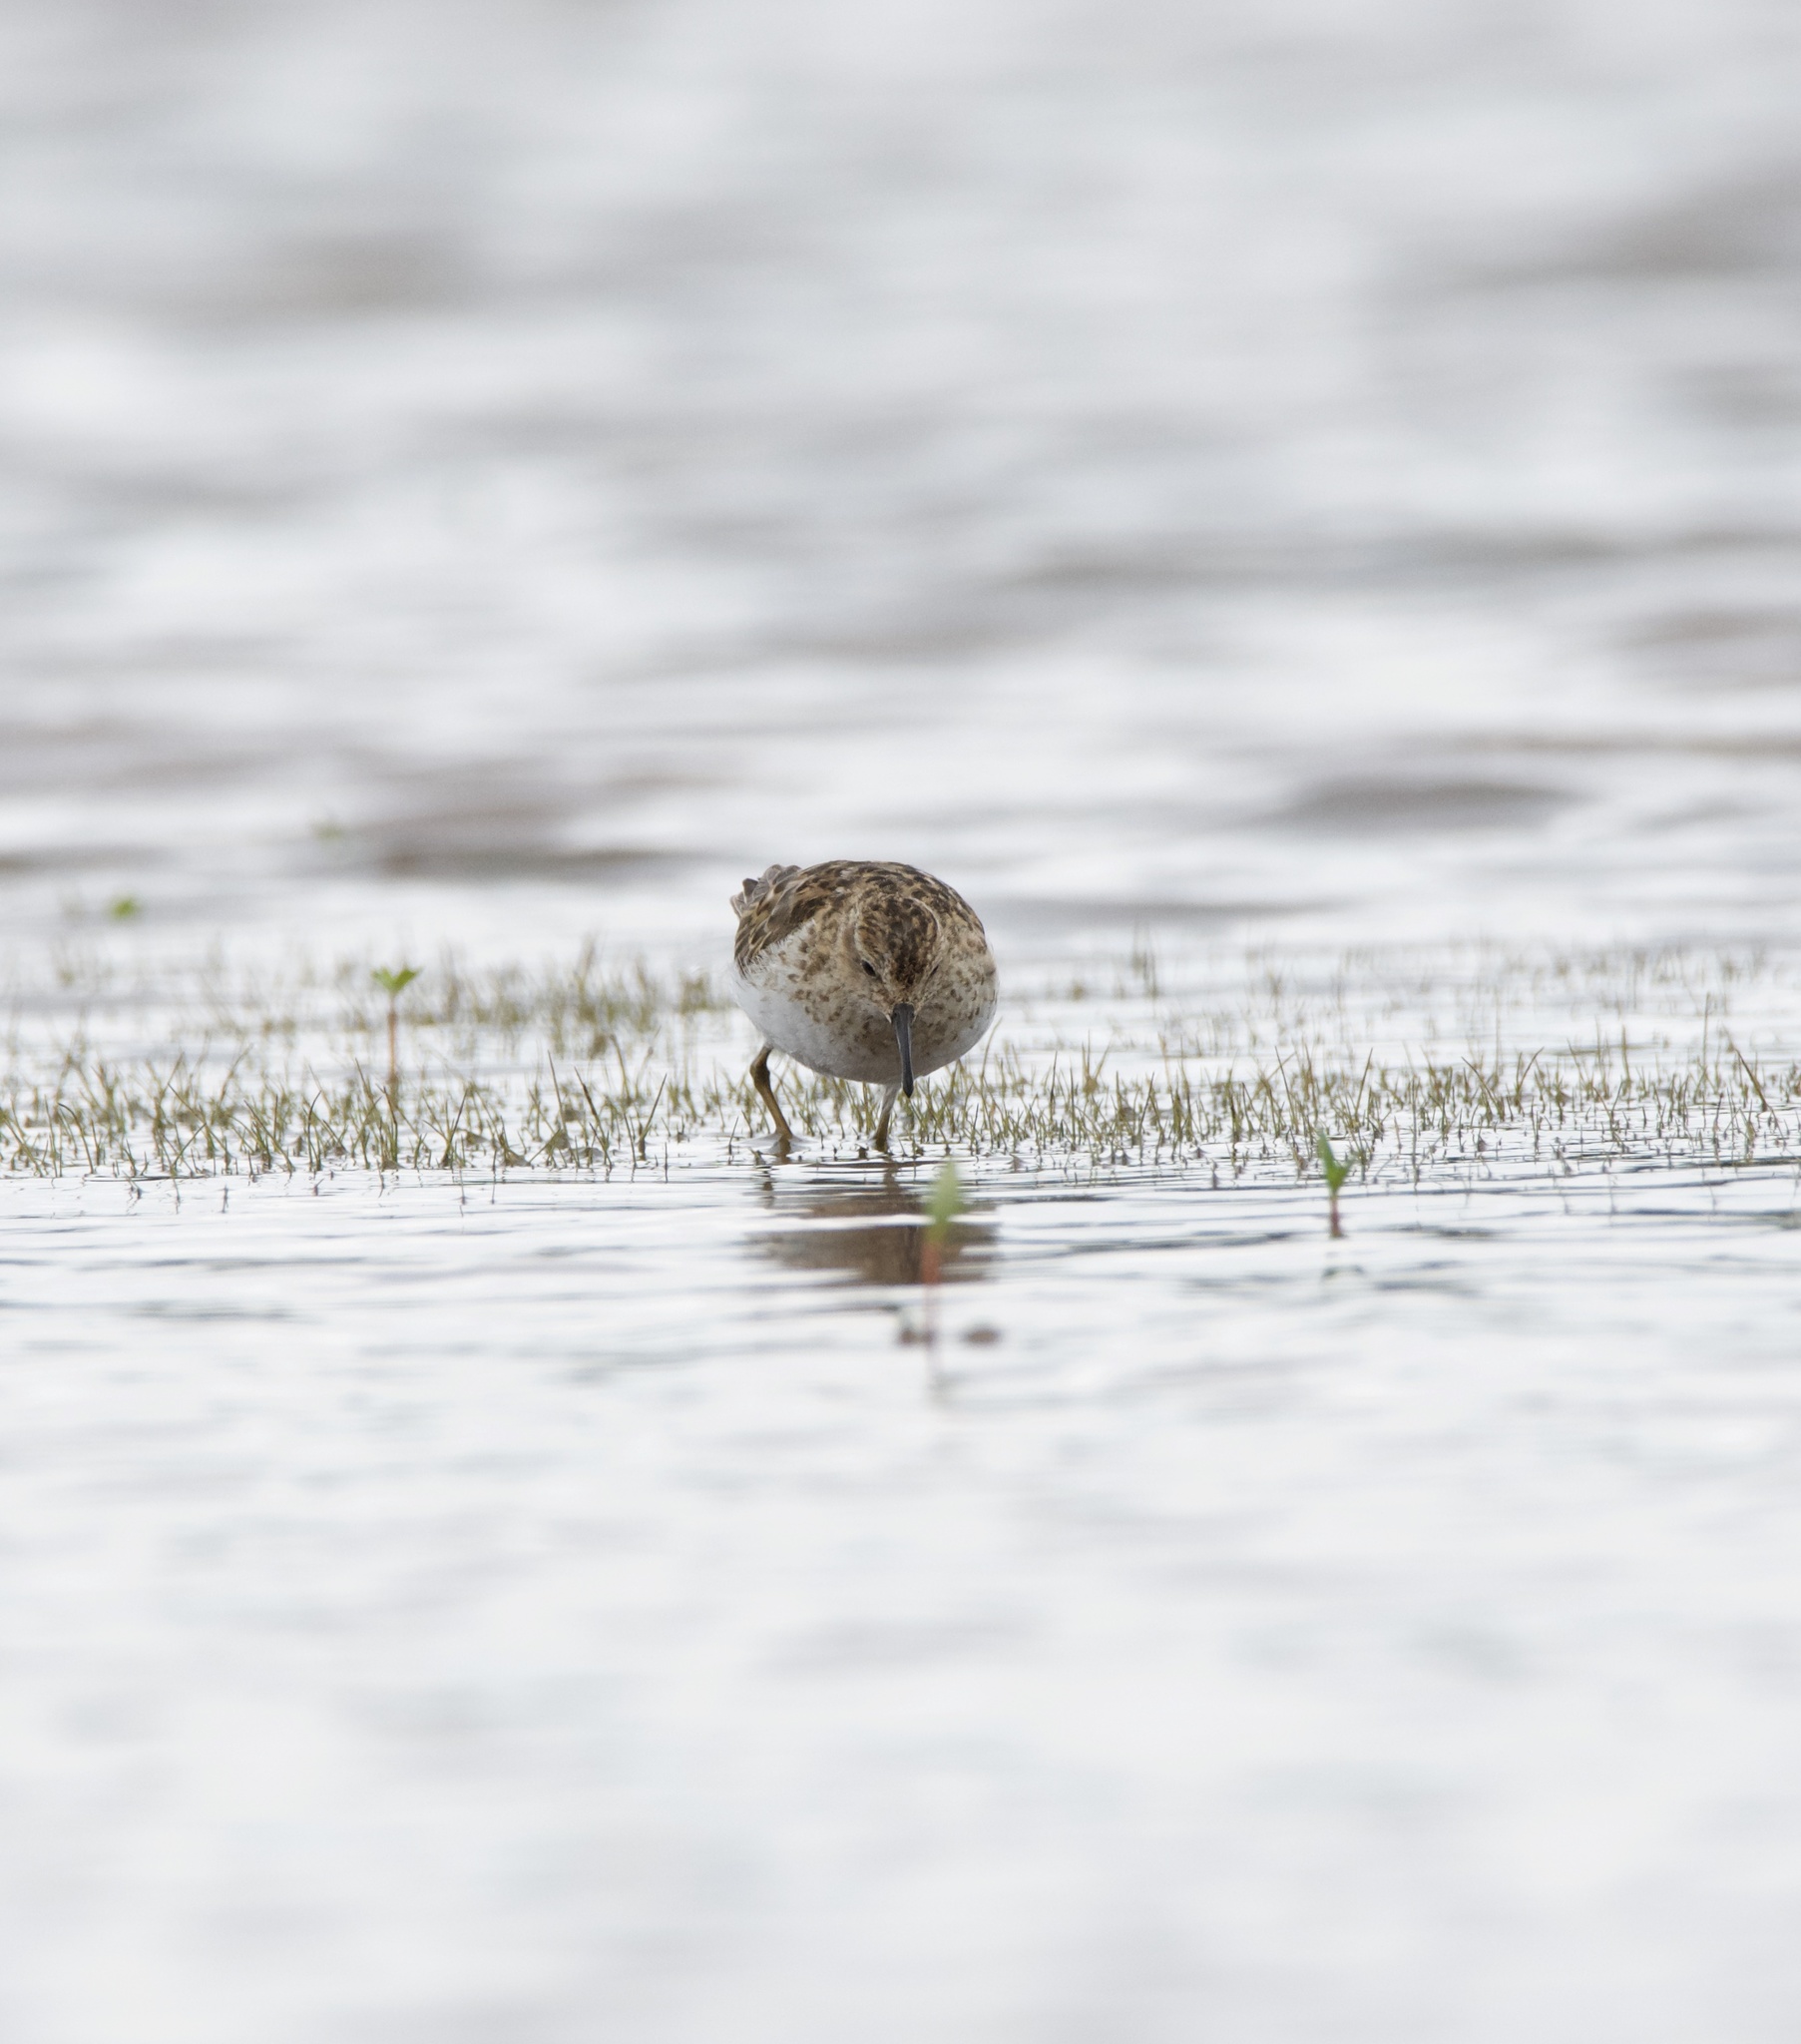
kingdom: Animalia
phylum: Chordata
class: Aves
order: Charadriiformes
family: Scolopacidae
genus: Calidris
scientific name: Calidris minutilla
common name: Least sandpiper
